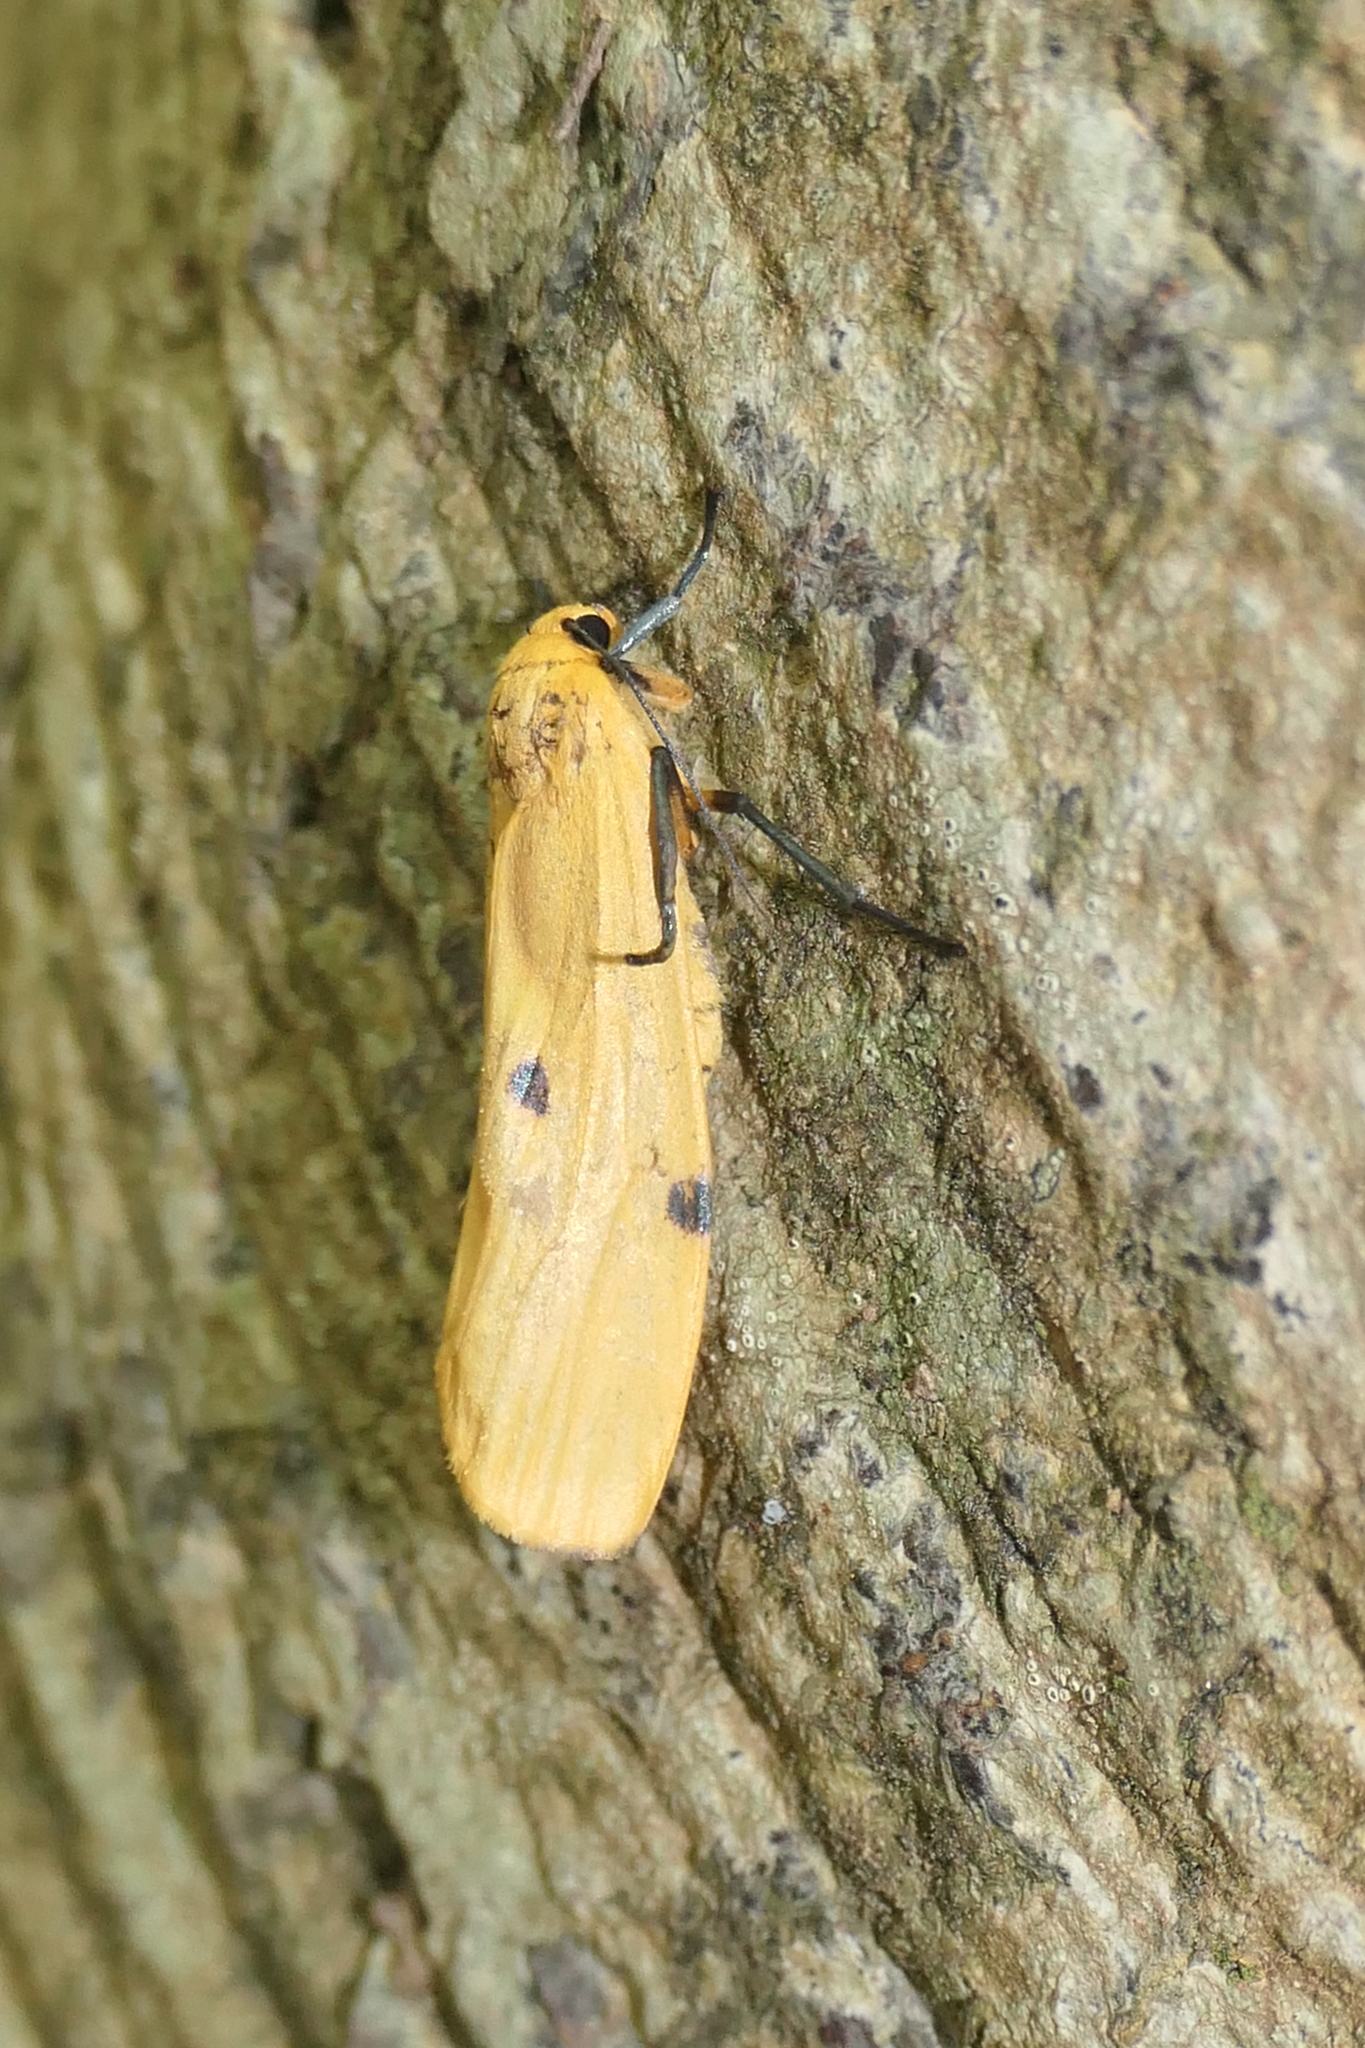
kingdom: Animalia
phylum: Arthropoda
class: Insecta
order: Lepidoptera
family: Erebidae
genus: Lithosia
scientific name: Lithosia quadra
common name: Four-spotted footman
